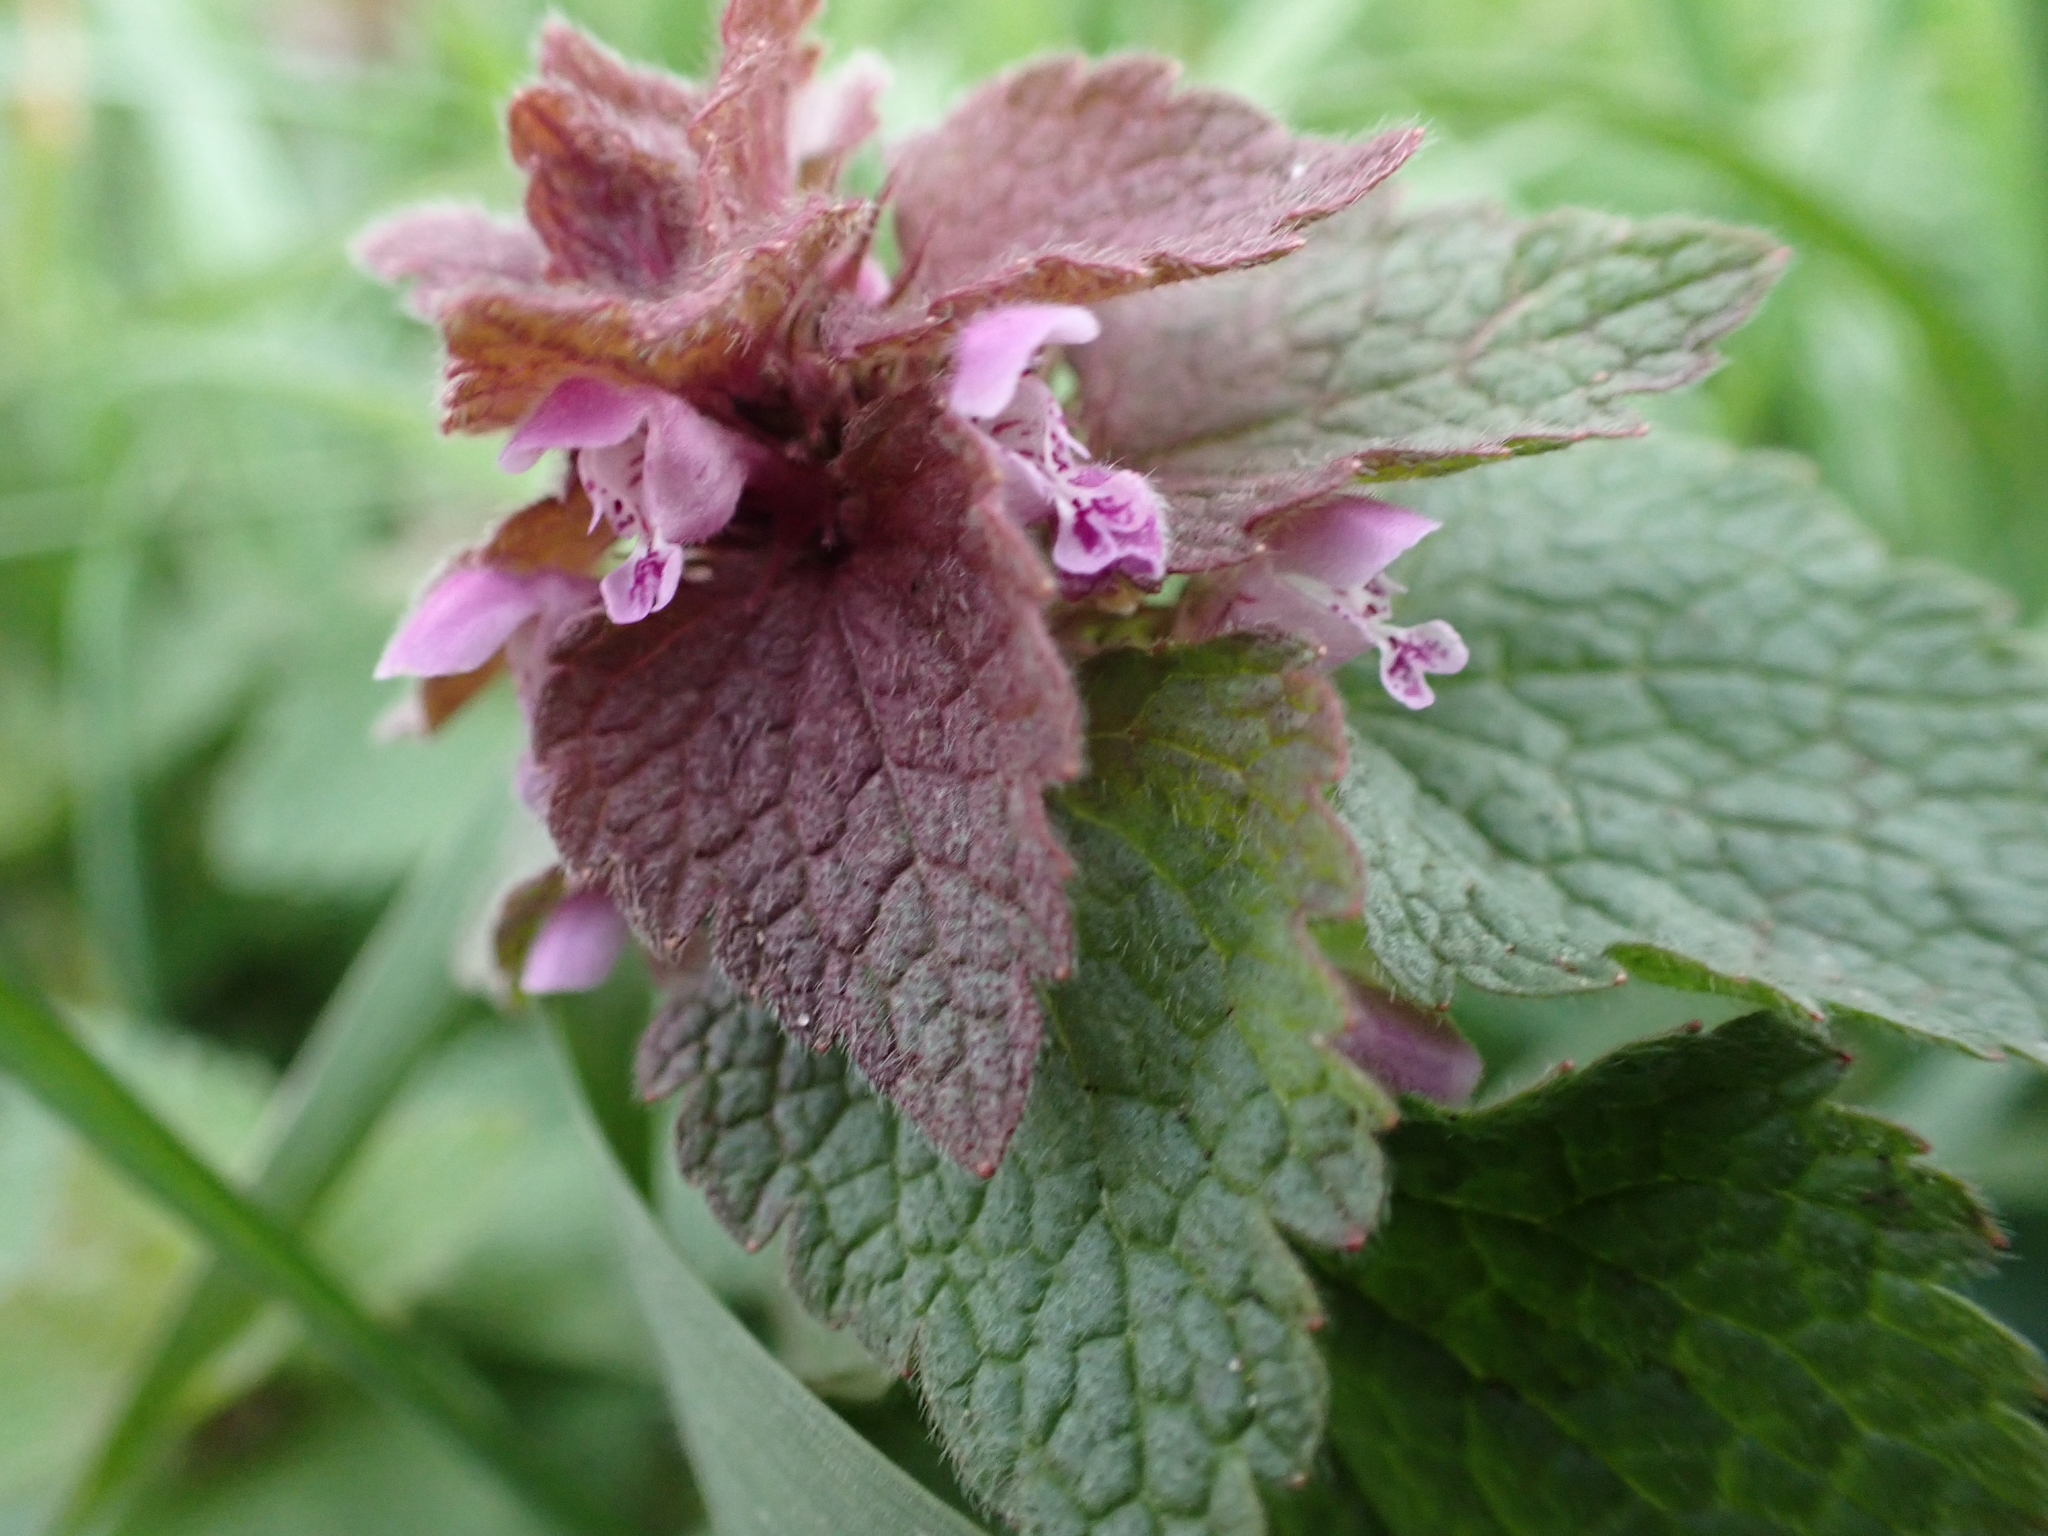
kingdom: Plantae
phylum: Tracheophyta
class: Magnoliopsida
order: Lamiales
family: Lamiaceae
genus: Lamium
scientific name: Lamium purpureum
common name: Red dead-nettle
